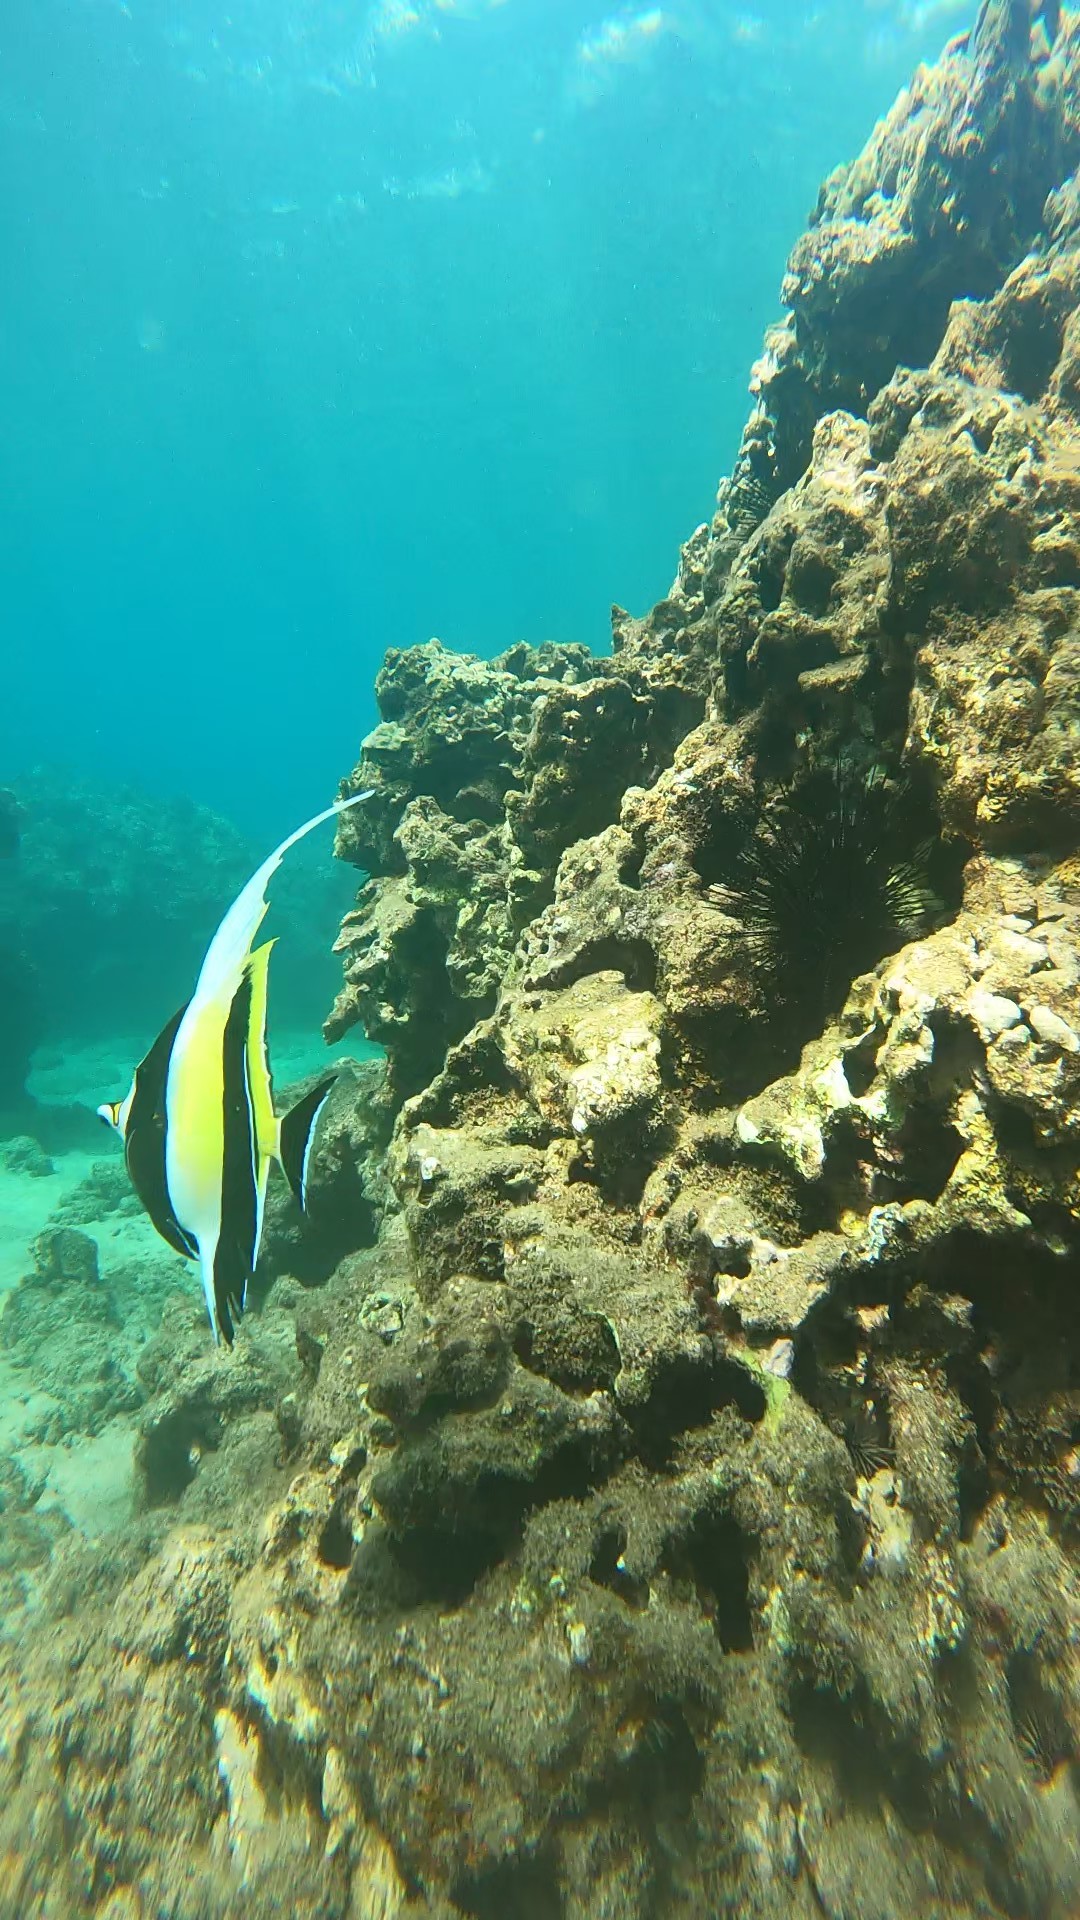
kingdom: Animalia
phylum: Chordata
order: Perciformes
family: Zanclidae
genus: Zanclus
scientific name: Zanclus cornutus
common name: Moorish idol
